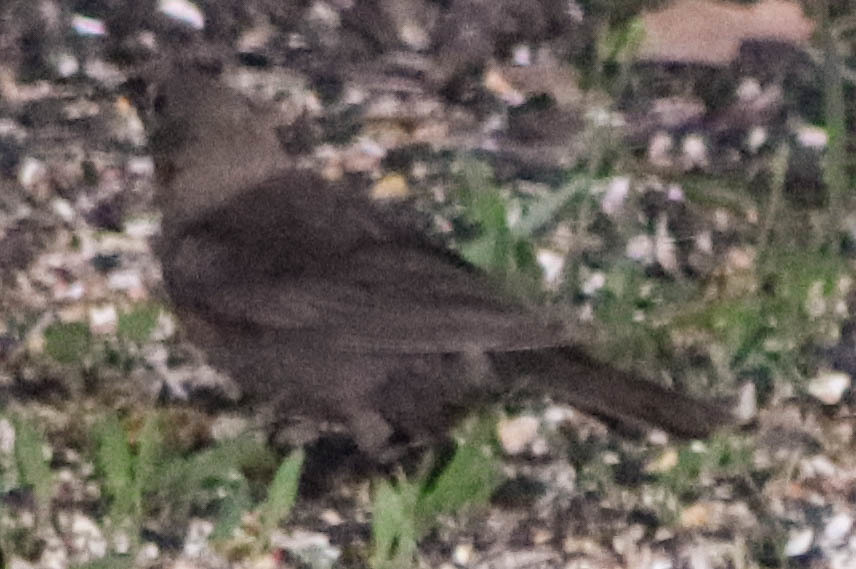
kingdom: Animalia
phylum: Chordata
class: Aves
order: Passeriformes
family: Icteridae
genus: Molothrus
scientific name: Molothrus ater
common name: Brown-headed cowbird
